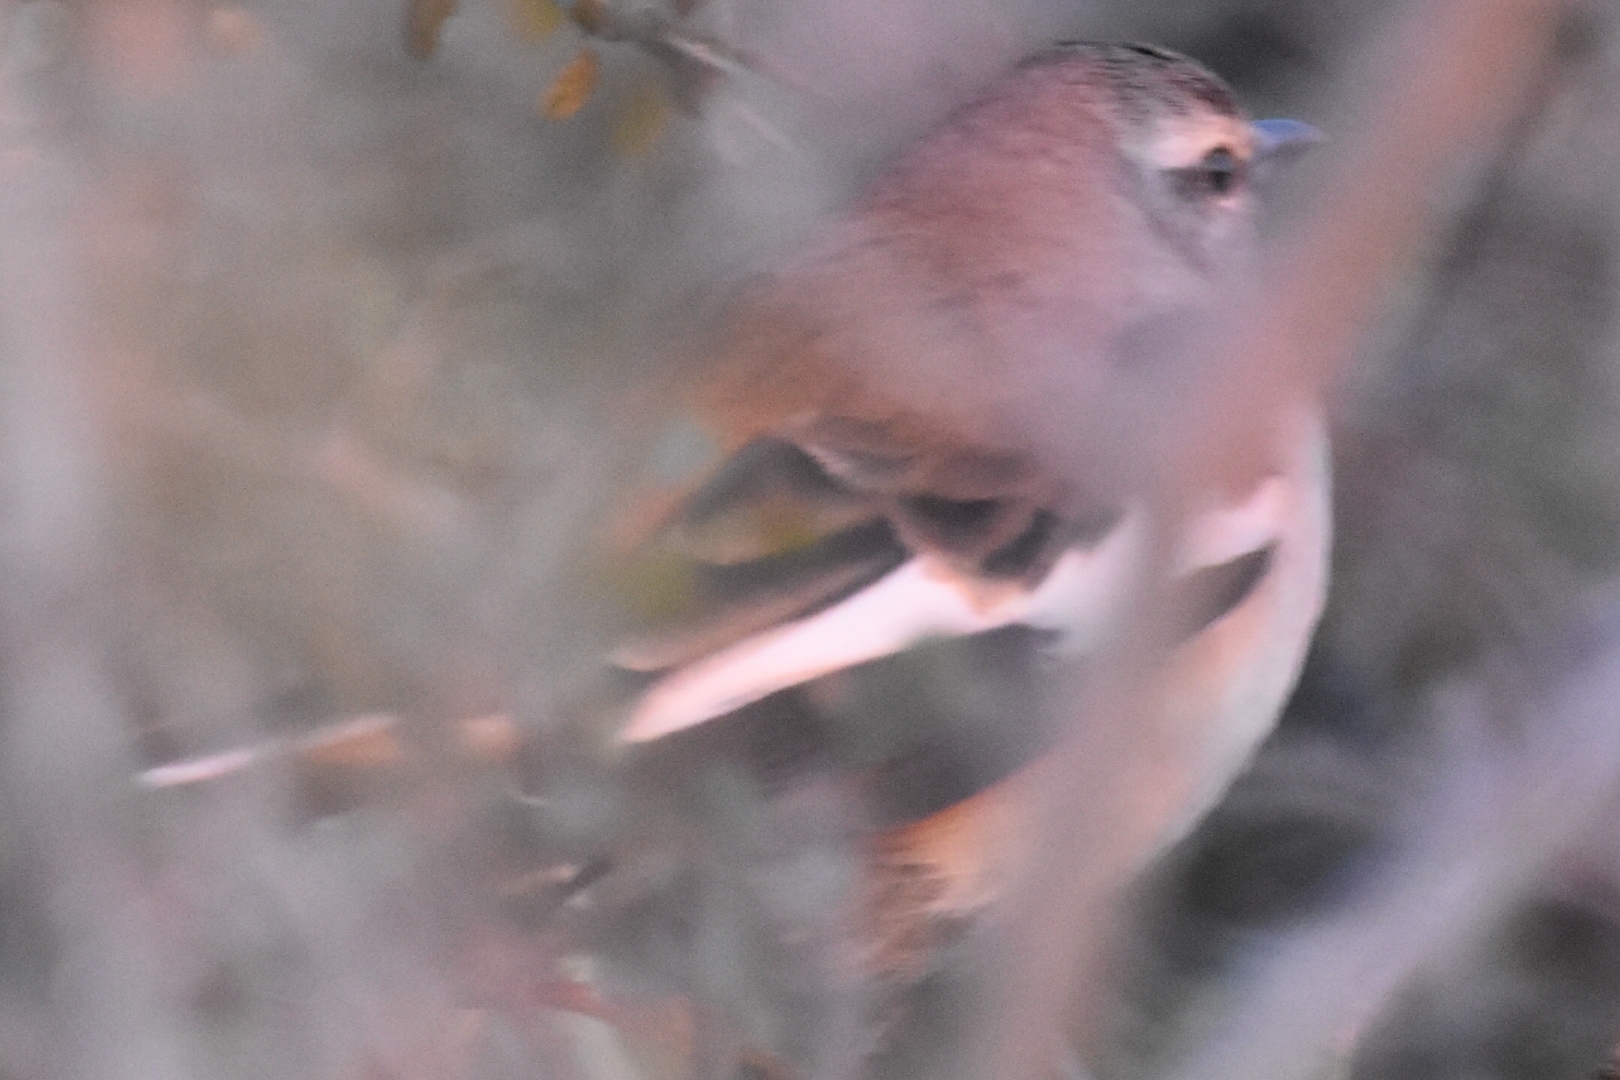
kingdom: Animalia
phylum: Chordata
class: Aves
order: Passeriformes
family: Mimidae
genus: Mimus
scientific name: Mimus triurus
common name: White-banded mockingbird
